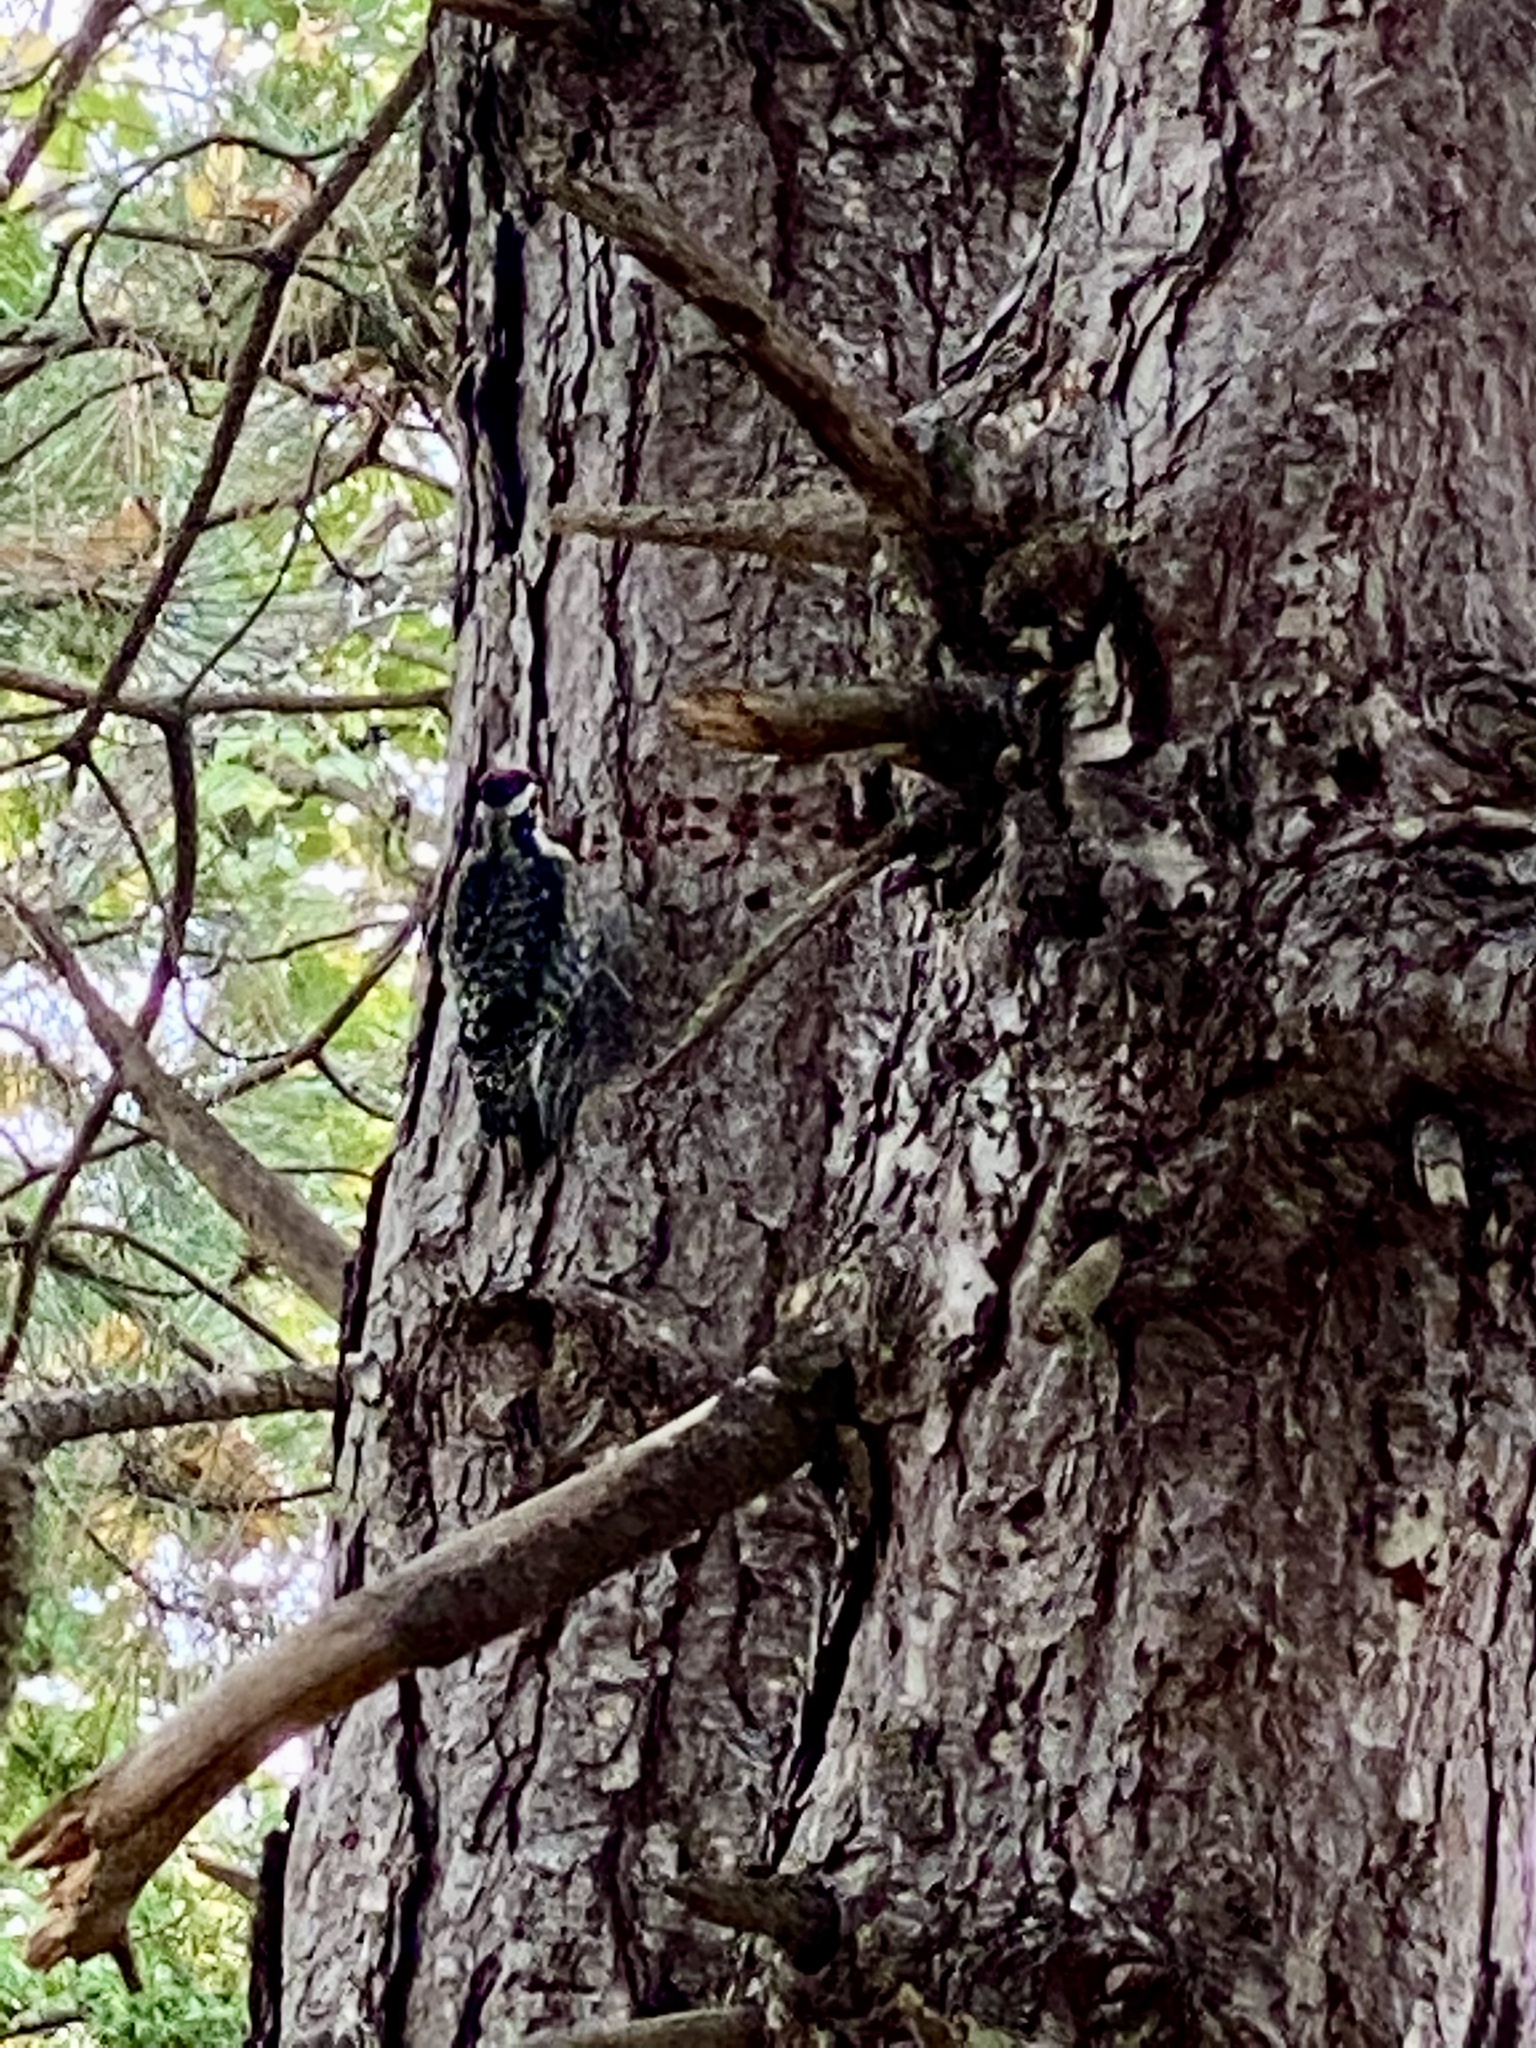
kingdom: Animalia
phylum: Chordata
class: Aves
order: Piciformes
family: Picidae
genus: Sphyrapicus
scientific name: Sphyrapicus varius
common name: Yellow-bellied sapsucker
